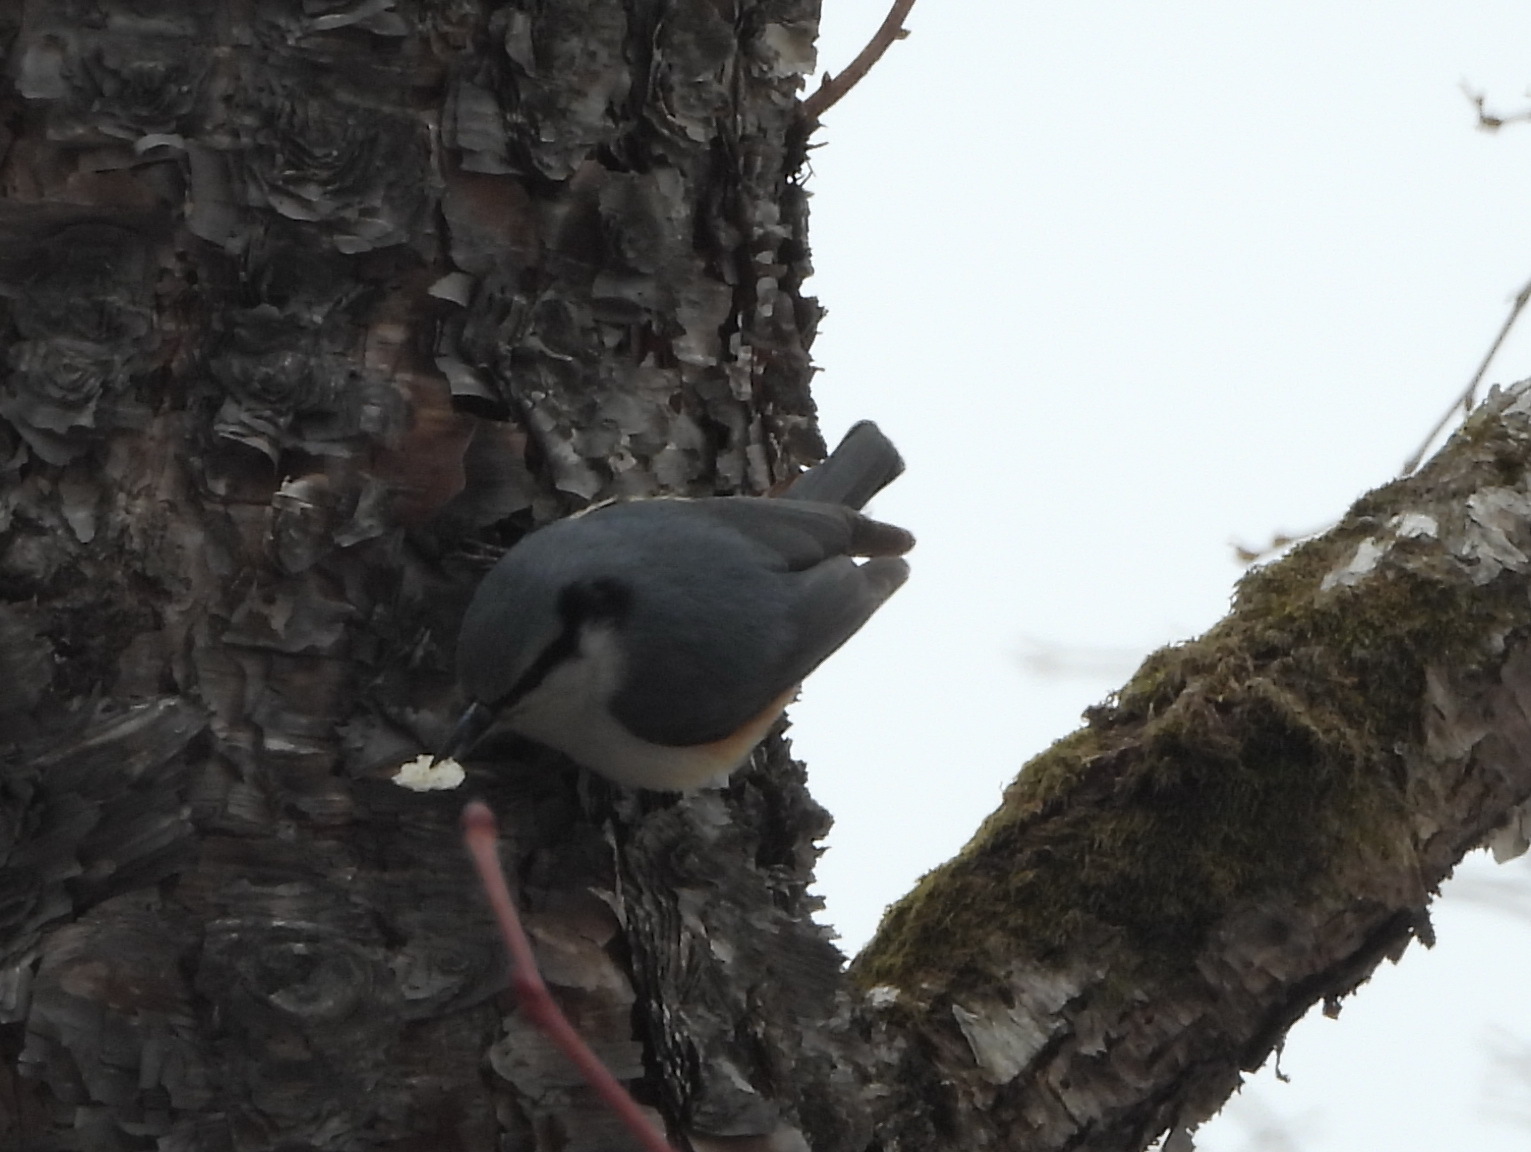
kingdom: Animalia
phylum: Chordata
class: Aves
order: Passeriformes
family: Sittidae
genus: Sitta
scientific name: Sitta europaea
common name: Eurasian nuthatch
